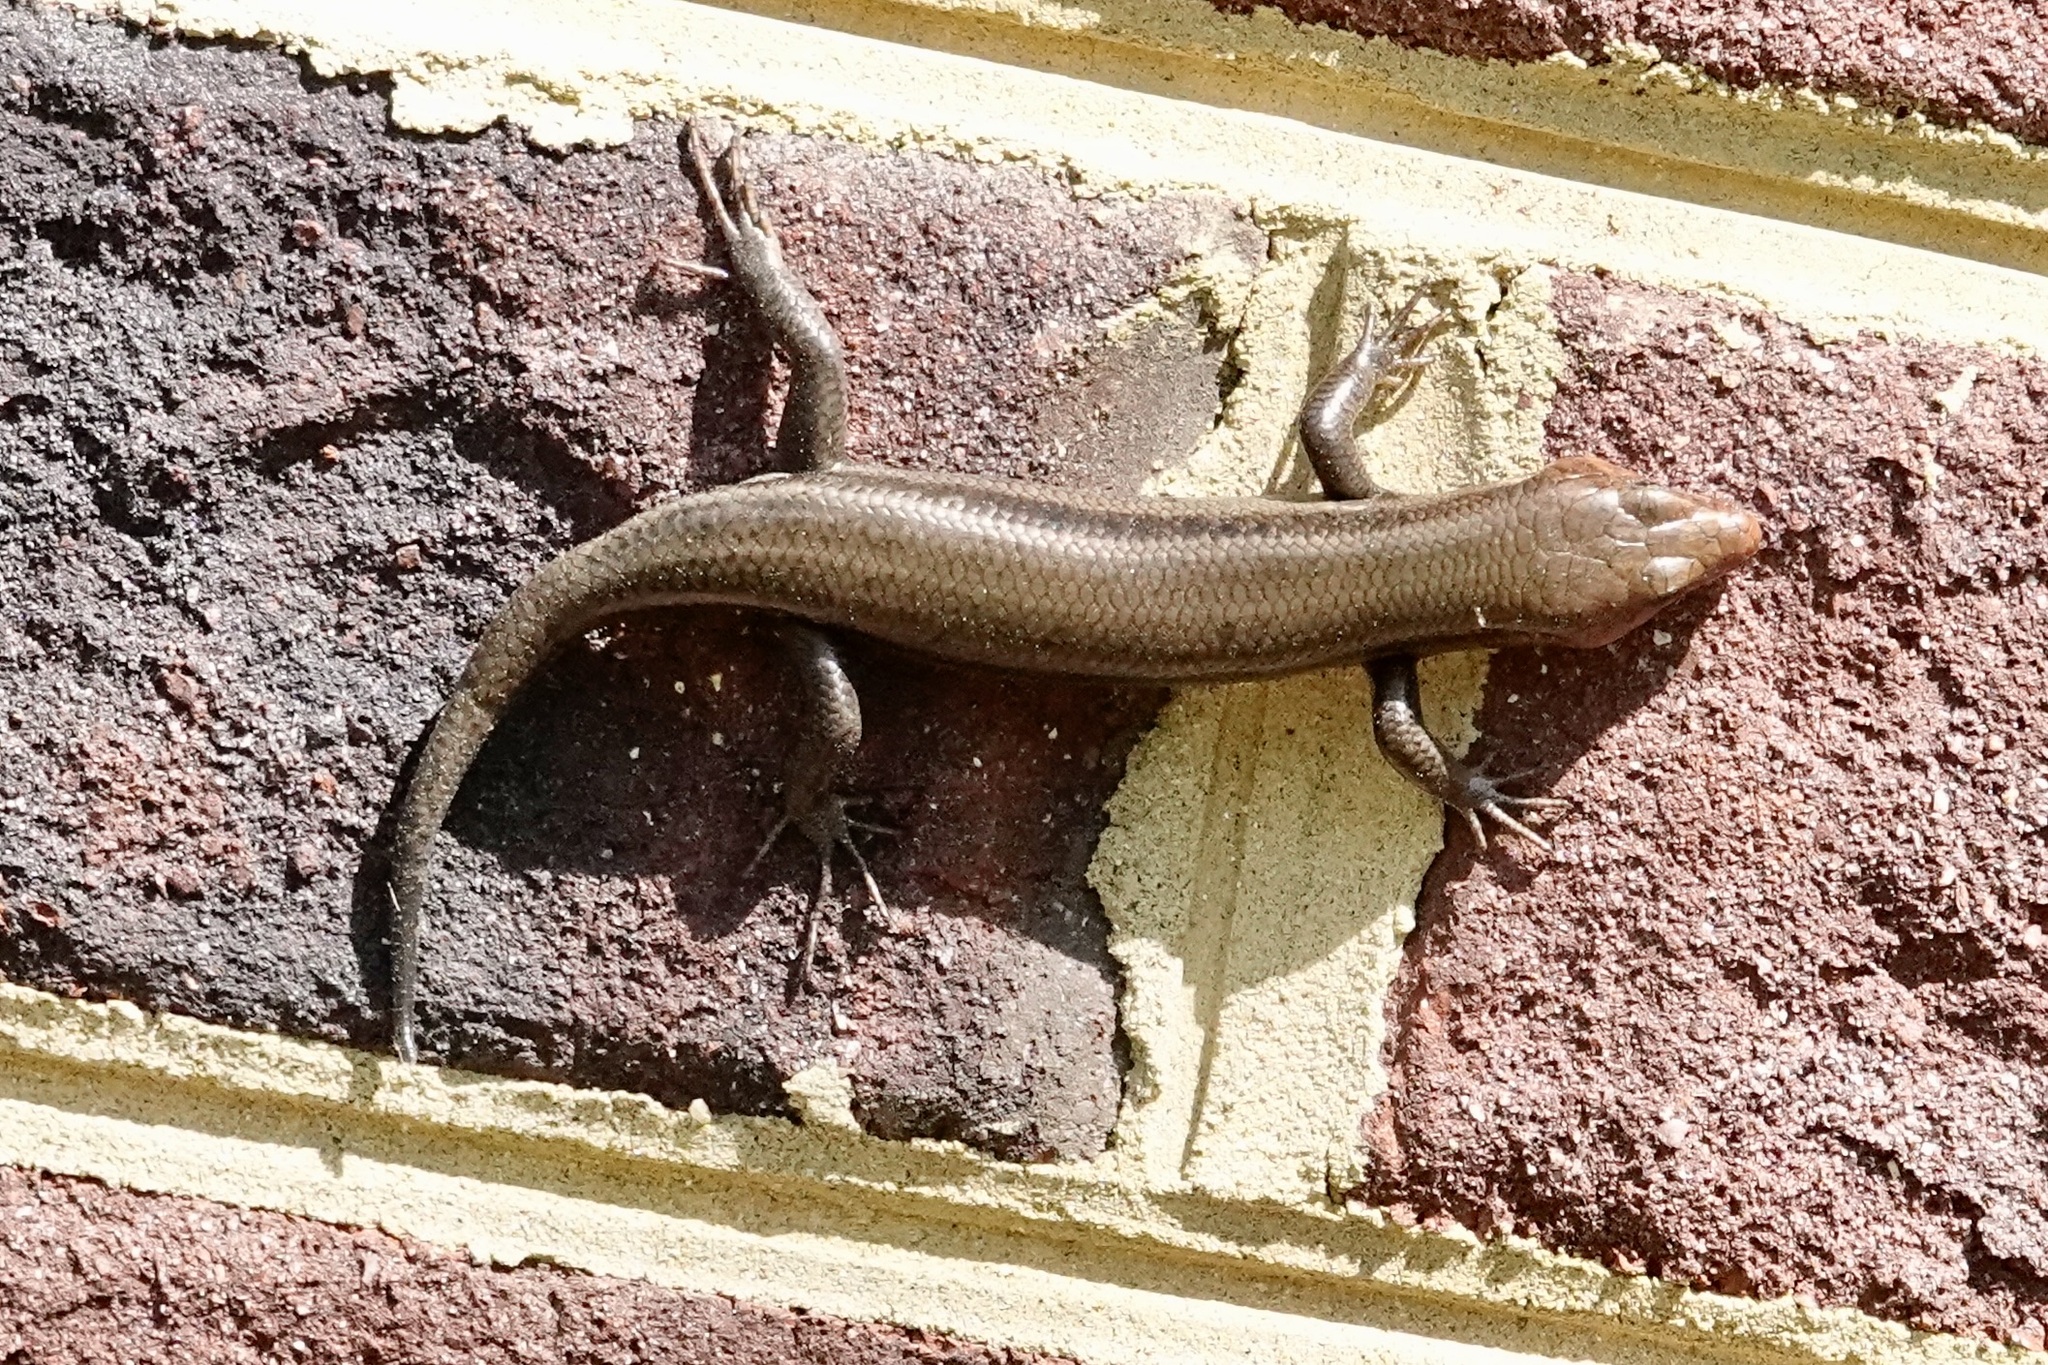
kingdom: Animalia
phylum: Chordata
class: Squamata
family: Scincidae
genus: Plestiodon
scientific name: Plestiodon fasciatus
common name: Five-lined skink
